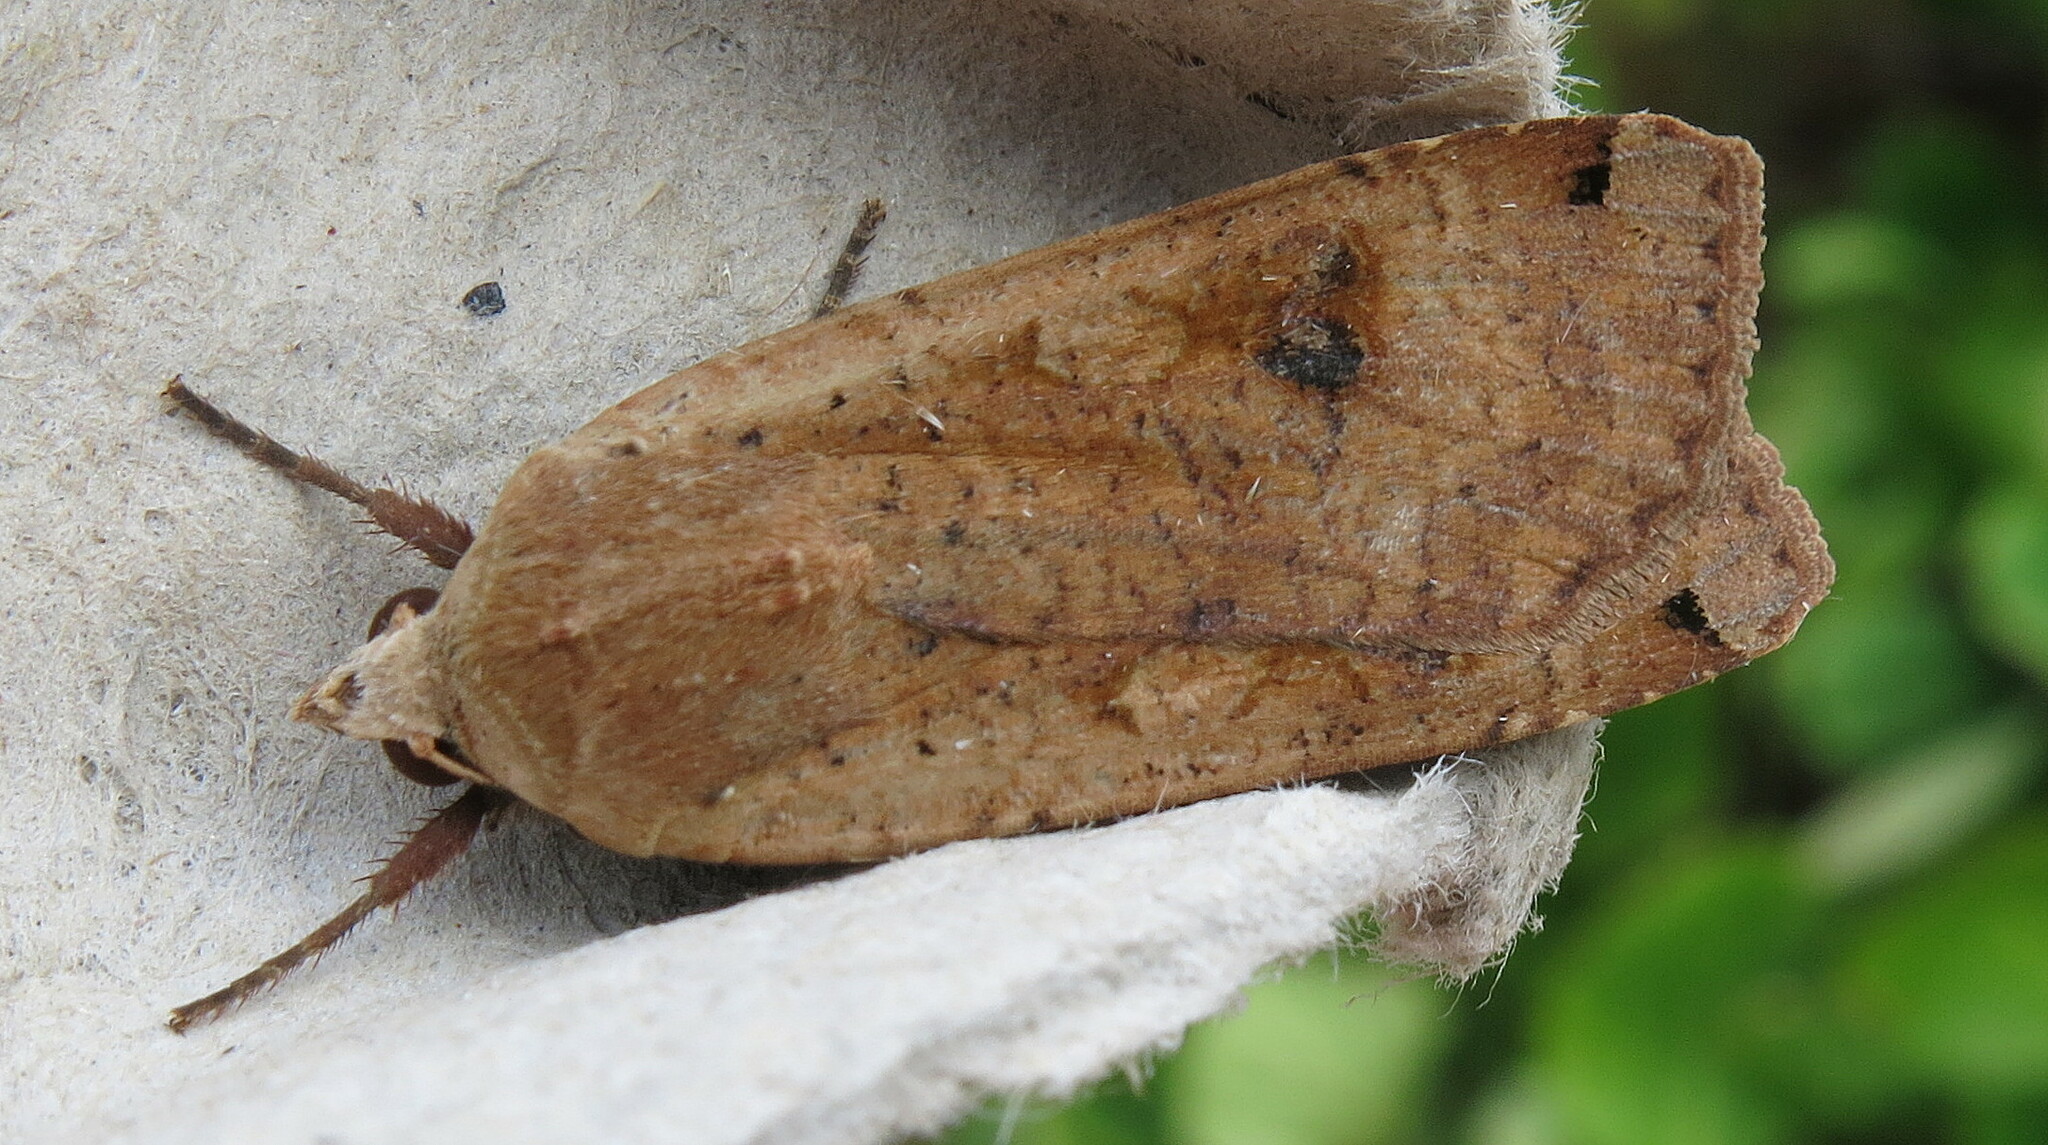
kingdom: Animalia
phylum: Arthropoda
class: Insecta
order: Lepidoptera
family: Noctuidae
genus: Noctua
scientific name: Noctua pronuba
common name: Large yellow underwing
